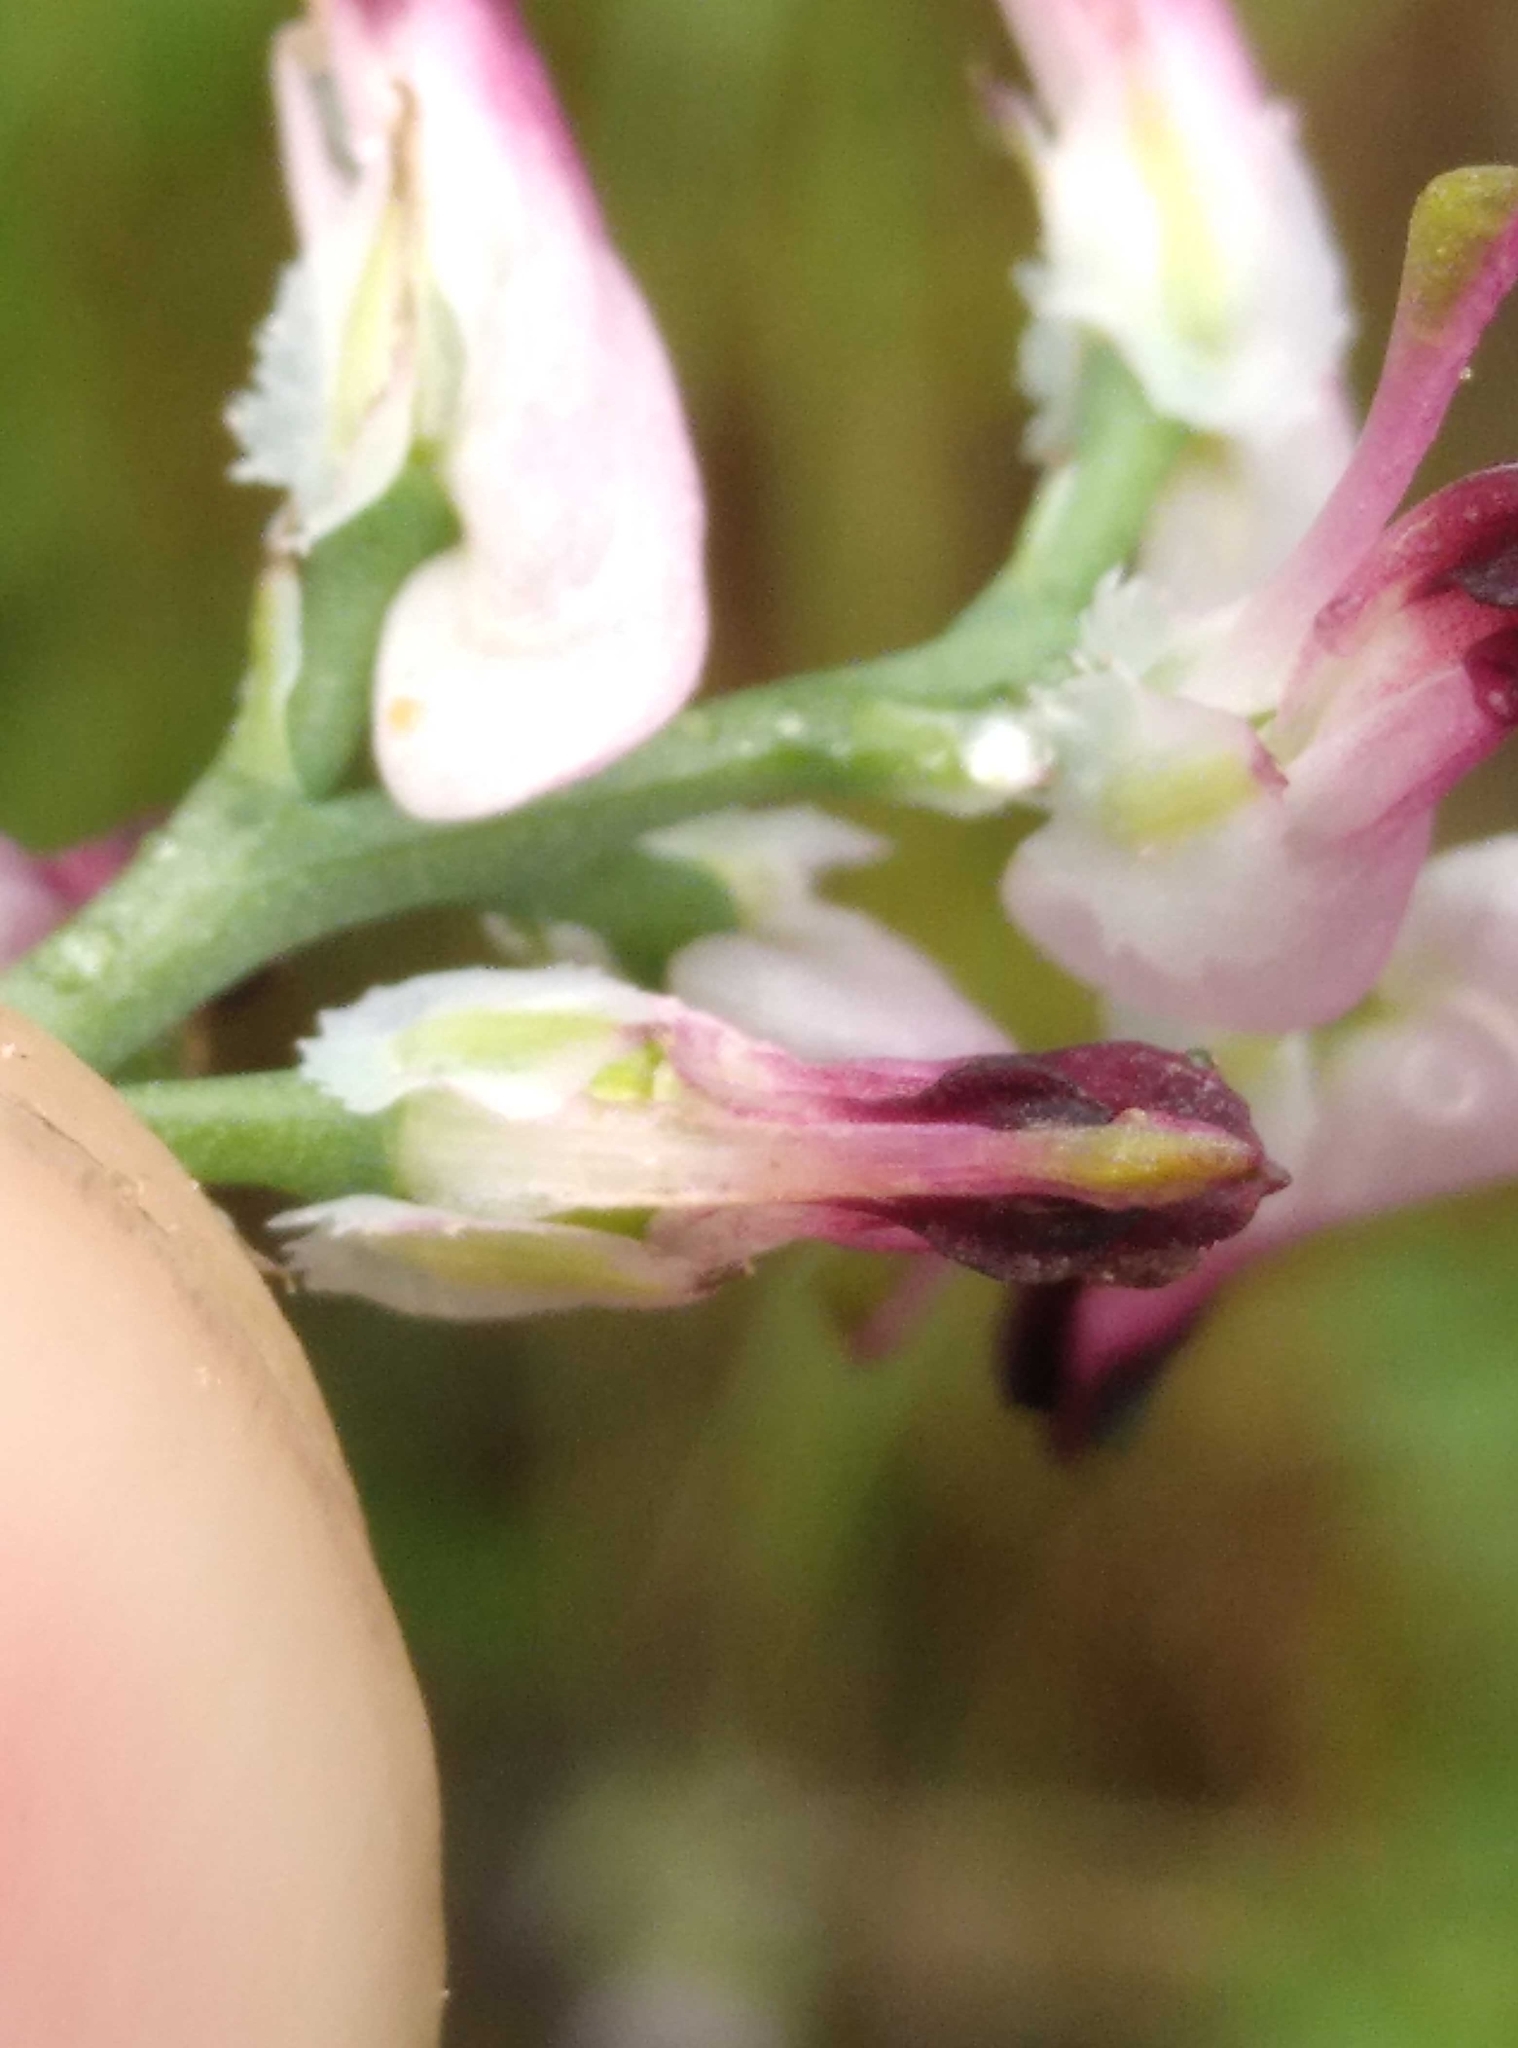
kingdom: Plantae
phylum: Tracheophyta
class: Magnoliopsida
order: Ranunculales
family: Papaveraceae
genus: Fumaria
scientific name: Fumaria muralis
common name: Common ramping-fumitory
